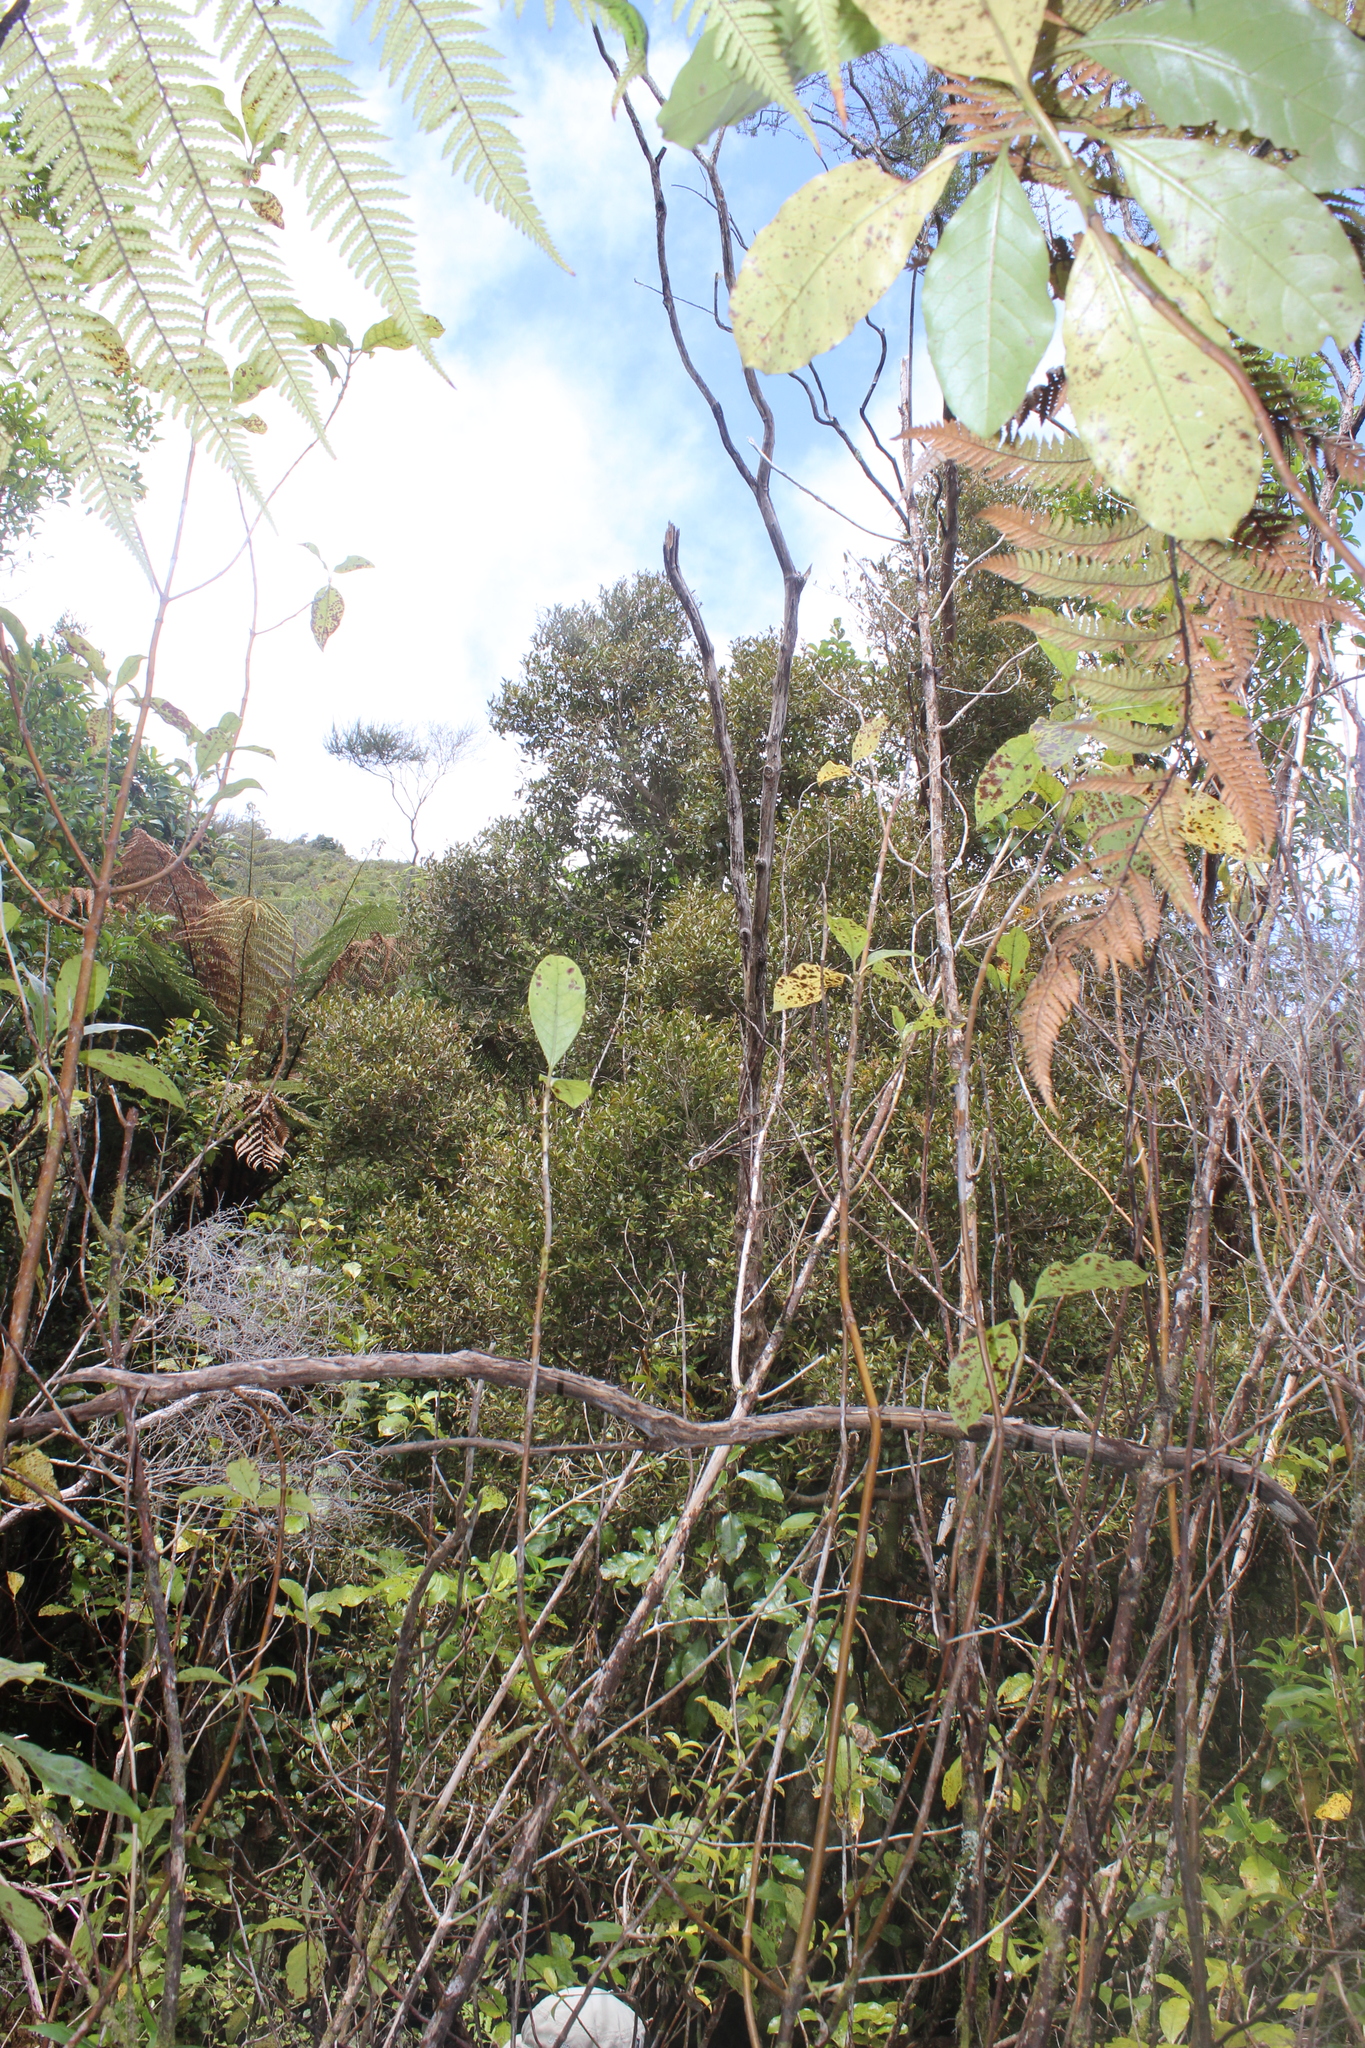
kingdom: Plantae
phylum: Tracheophyta
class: Magnoliopsida
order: Myrtales
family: Myrtaceae
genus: Syzygium
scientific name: Syzygium maire
